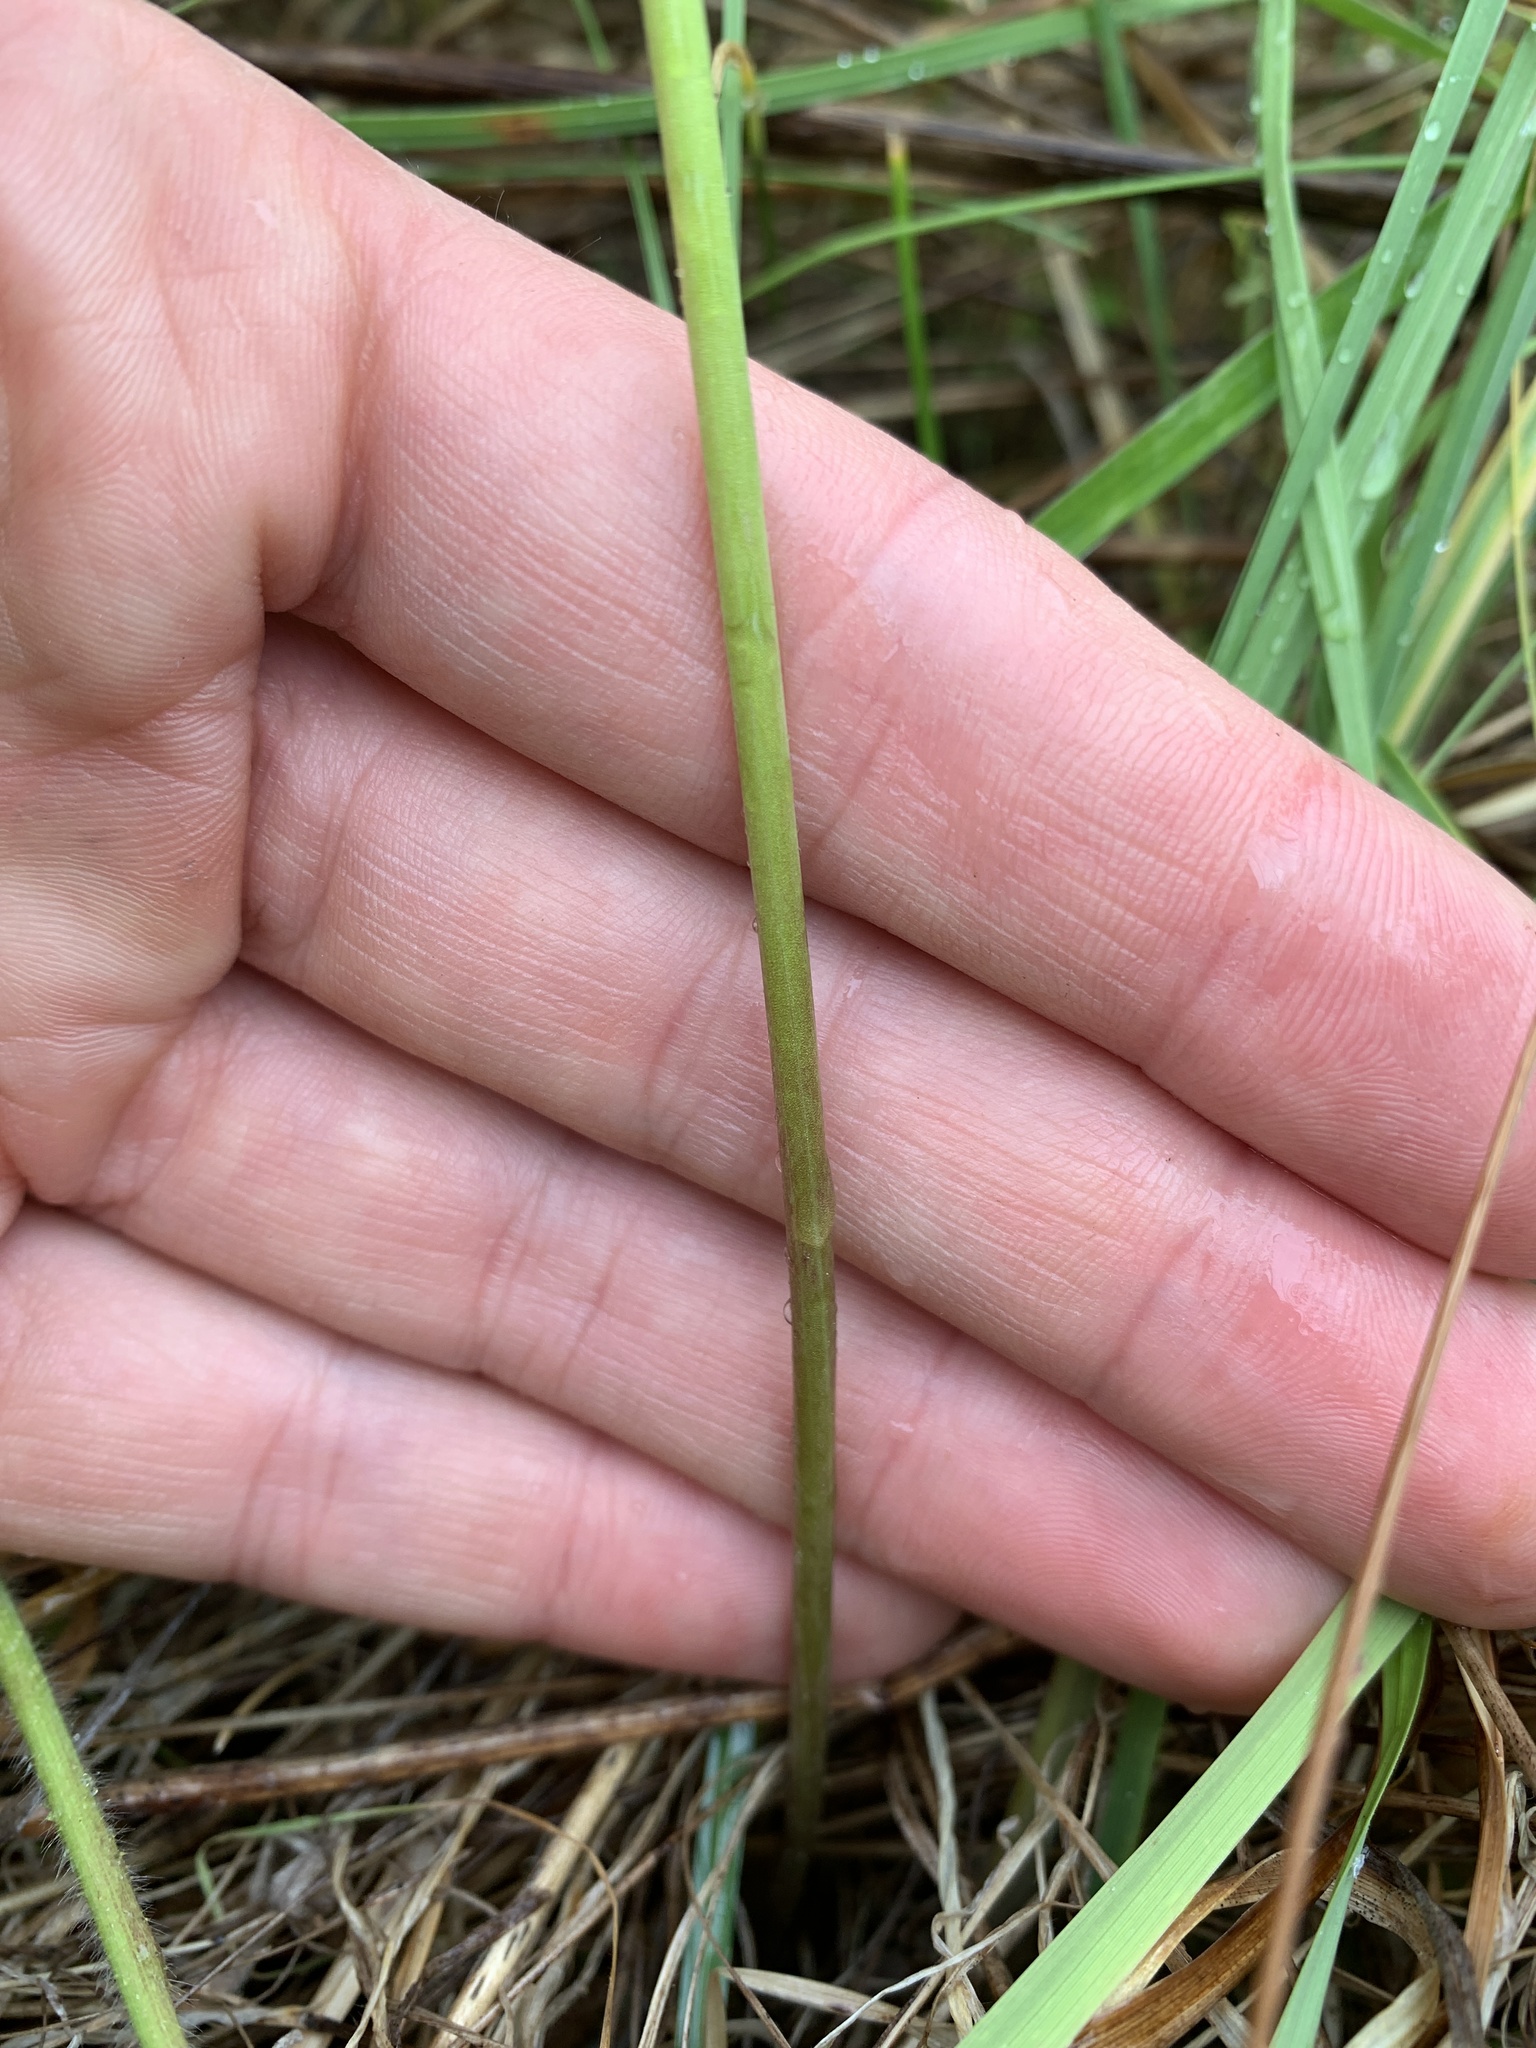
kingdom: Plantae
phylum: Tracheophyta
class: Liliopsida
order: Asparagales
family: Asparagaceae
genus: Dichelostemma
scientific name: Dichelostemma congestum
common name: Fork-tooth ookow
